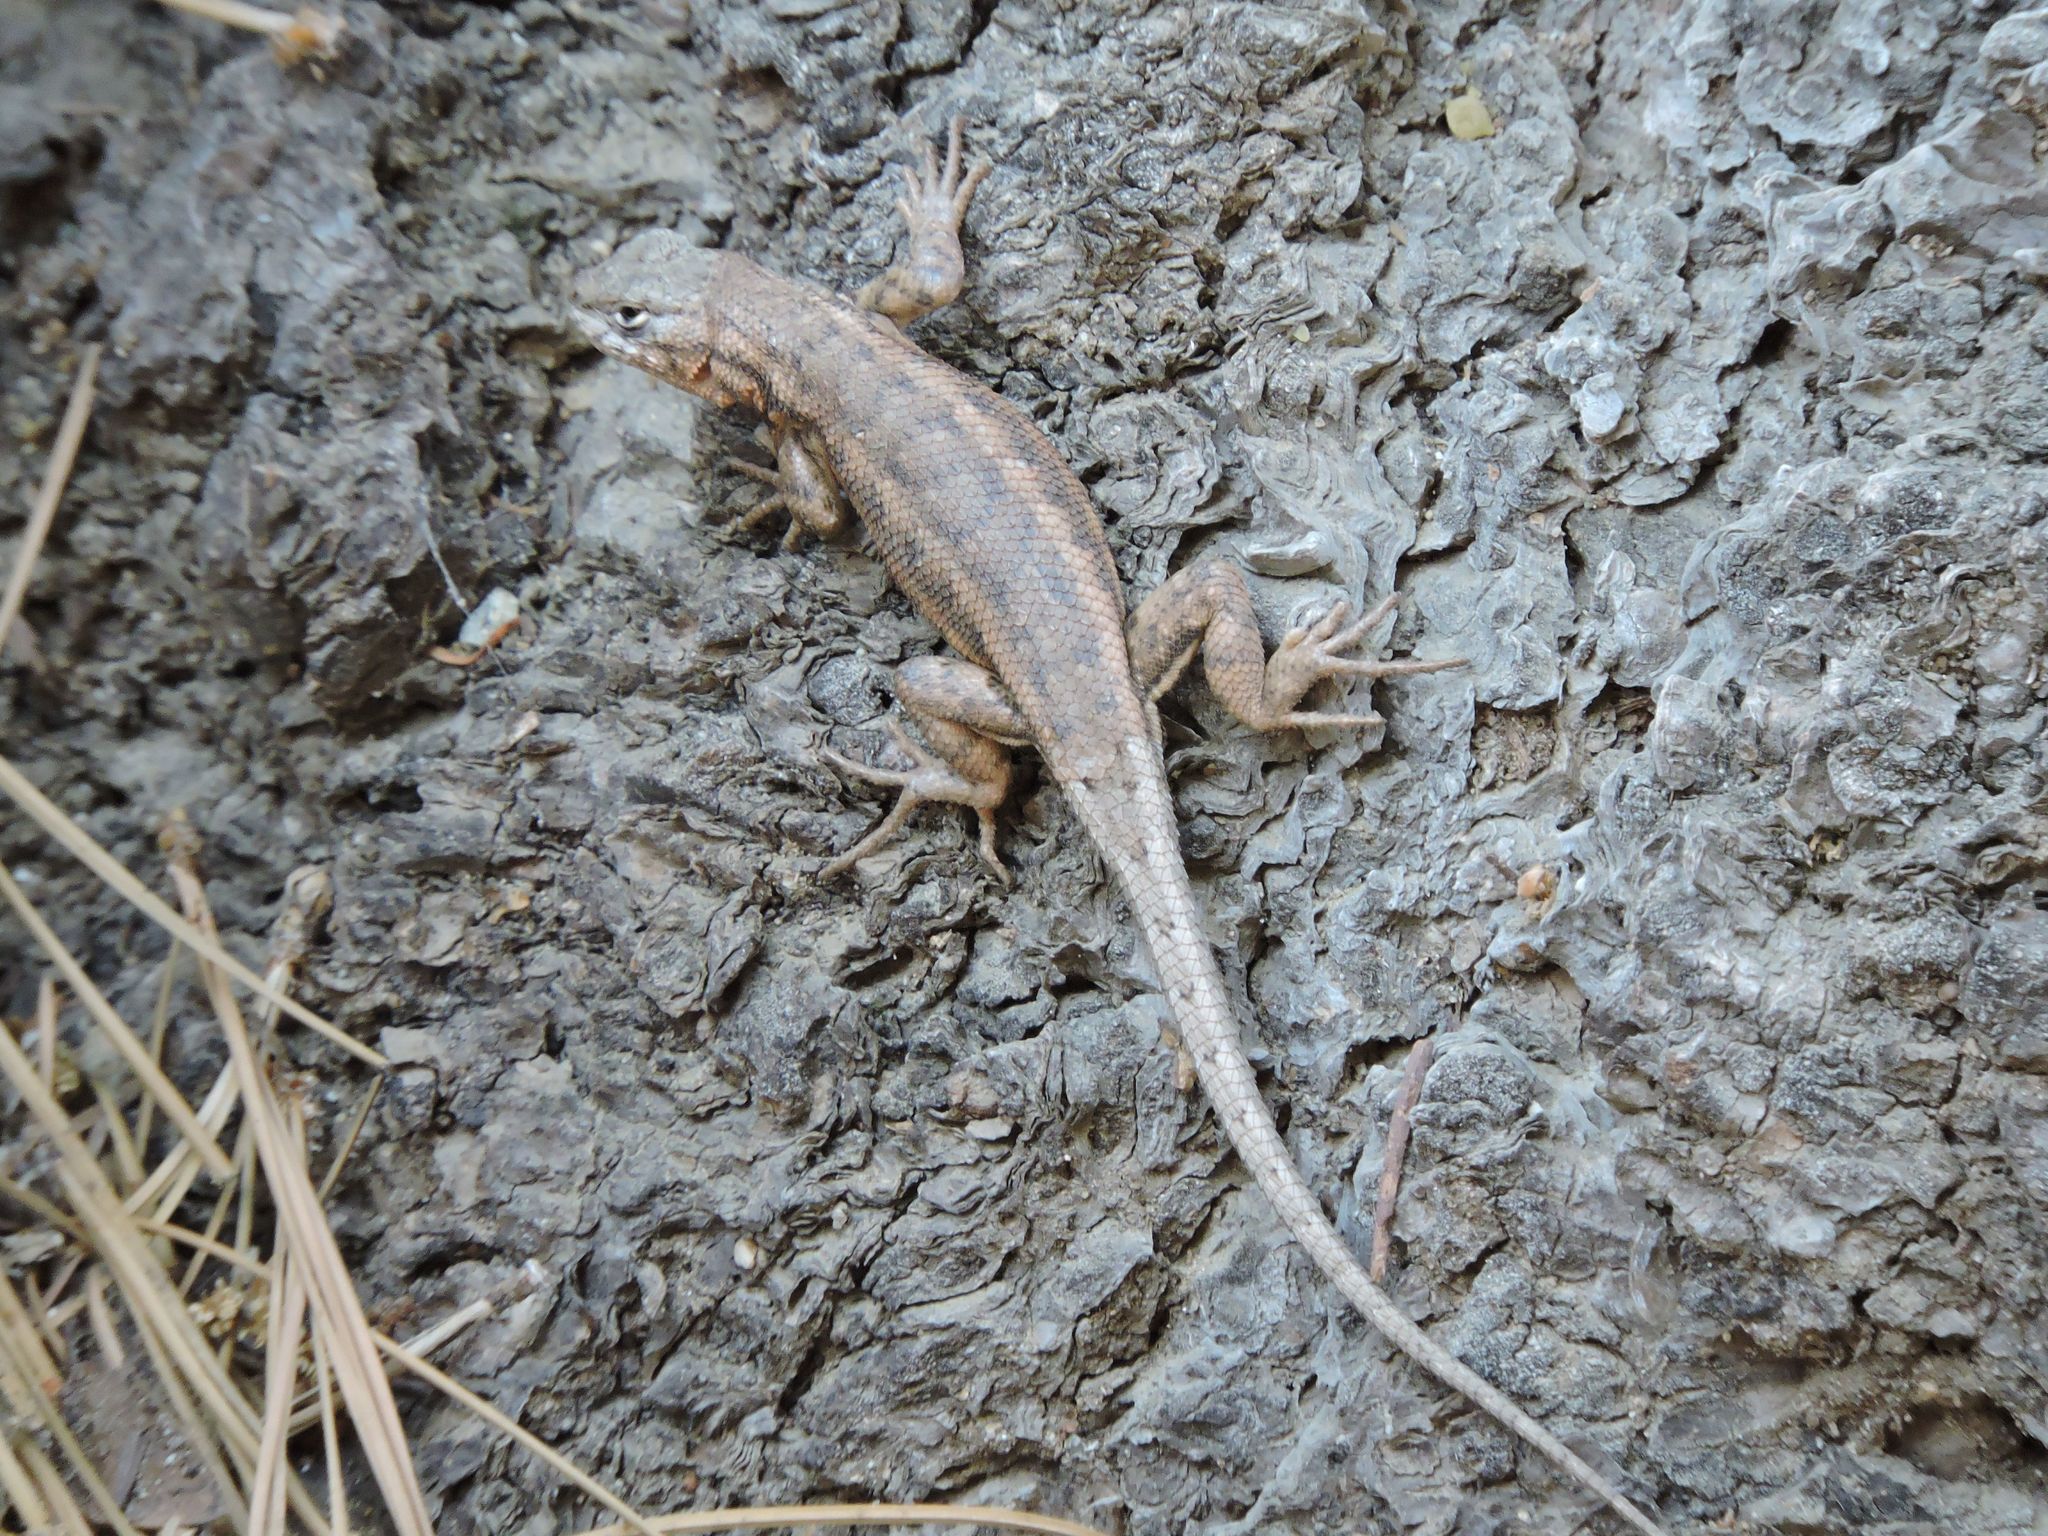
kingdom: Animalia
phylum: Chordata
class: Squamata
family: Phrynosomatidae
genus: Sceloporus
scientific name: Sceloporus graciosus
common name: Sagebrush lizard
